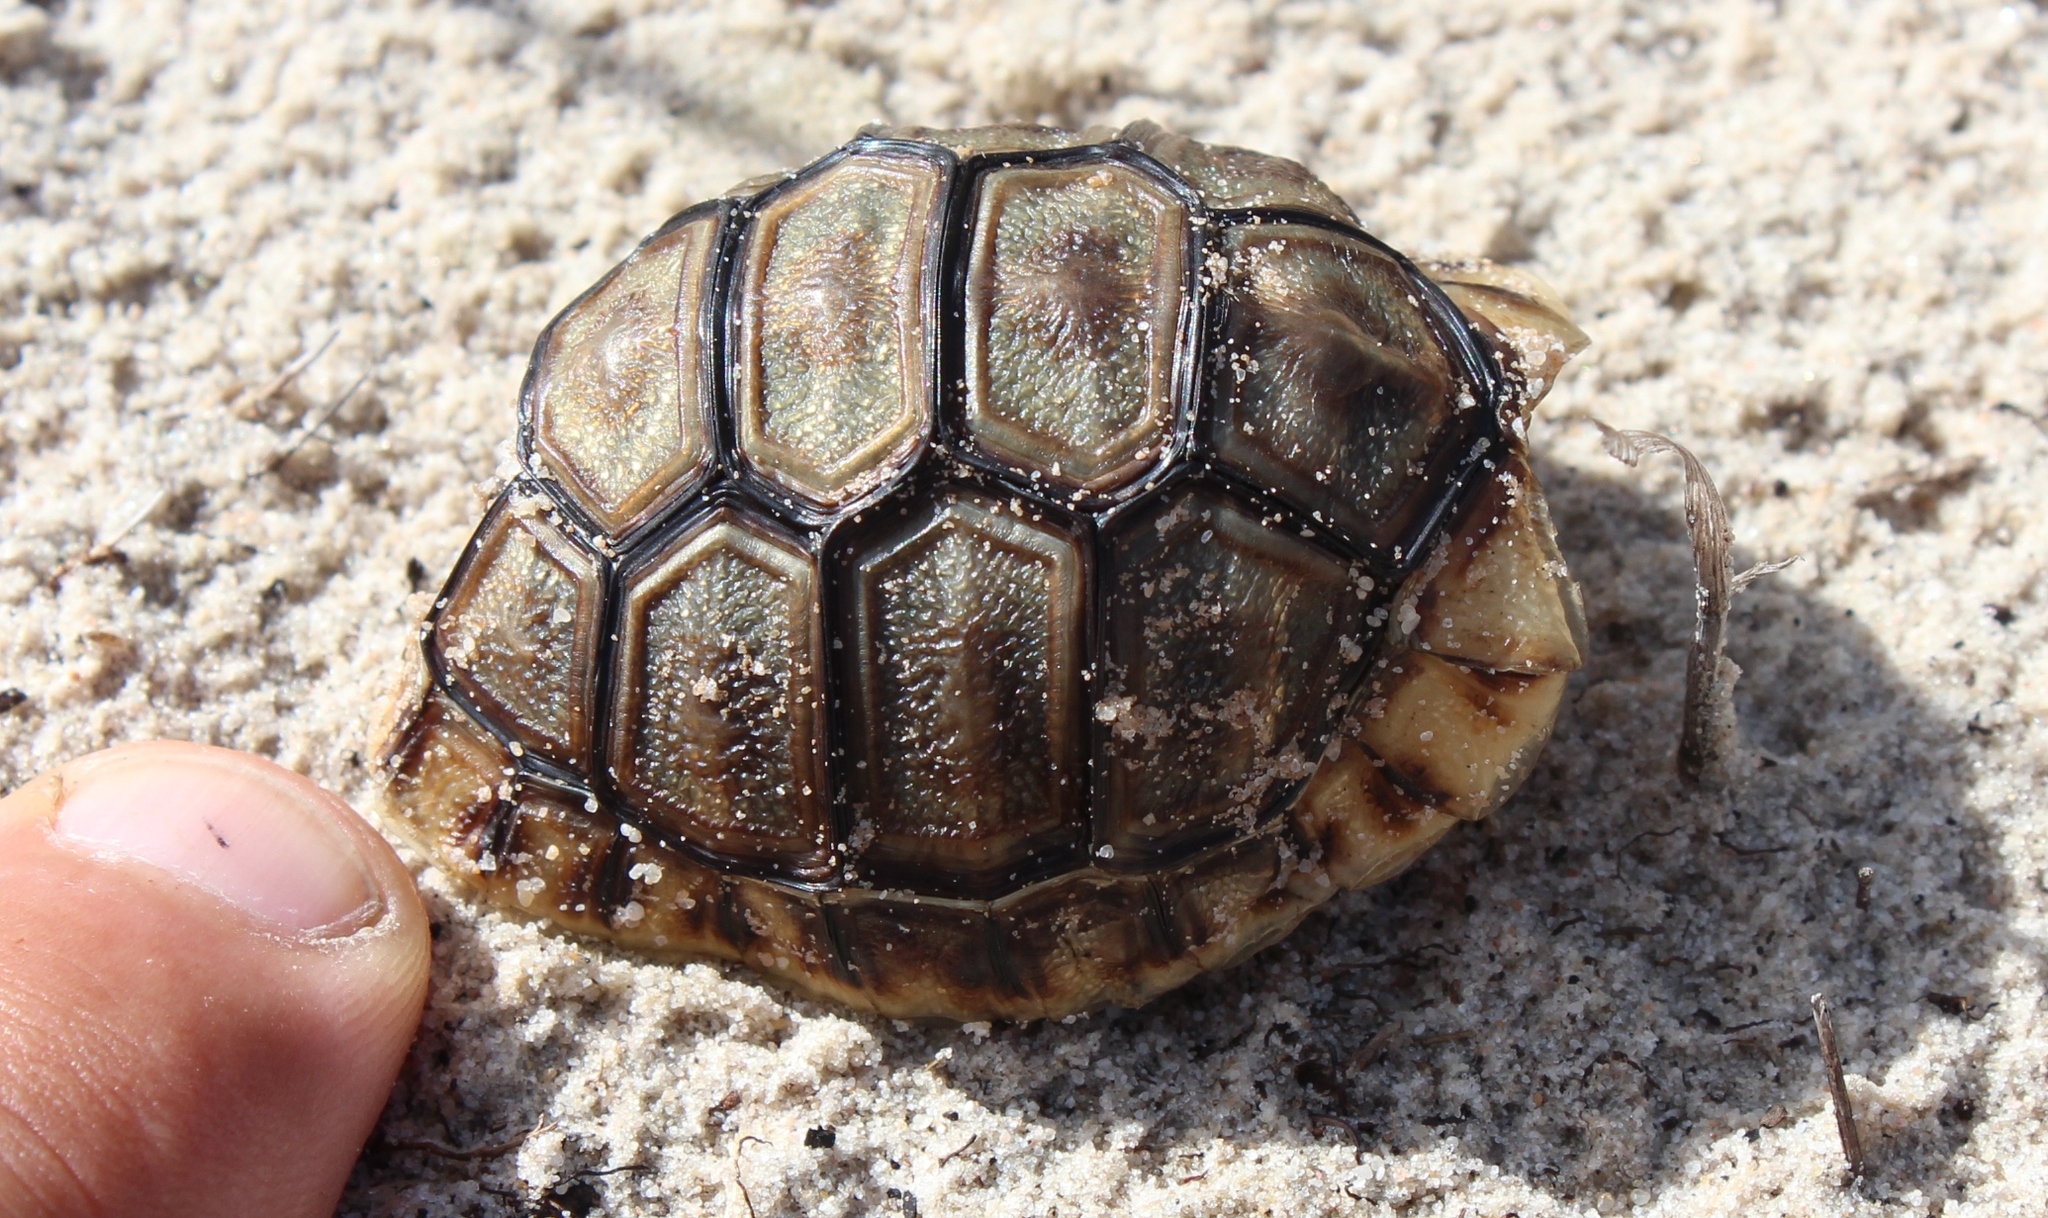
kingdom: Animalia
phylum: Chordata
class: Testudines
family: Testudinidae
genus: Chersina
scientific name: Chersina angulata
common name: South african bowsprit tortoise
